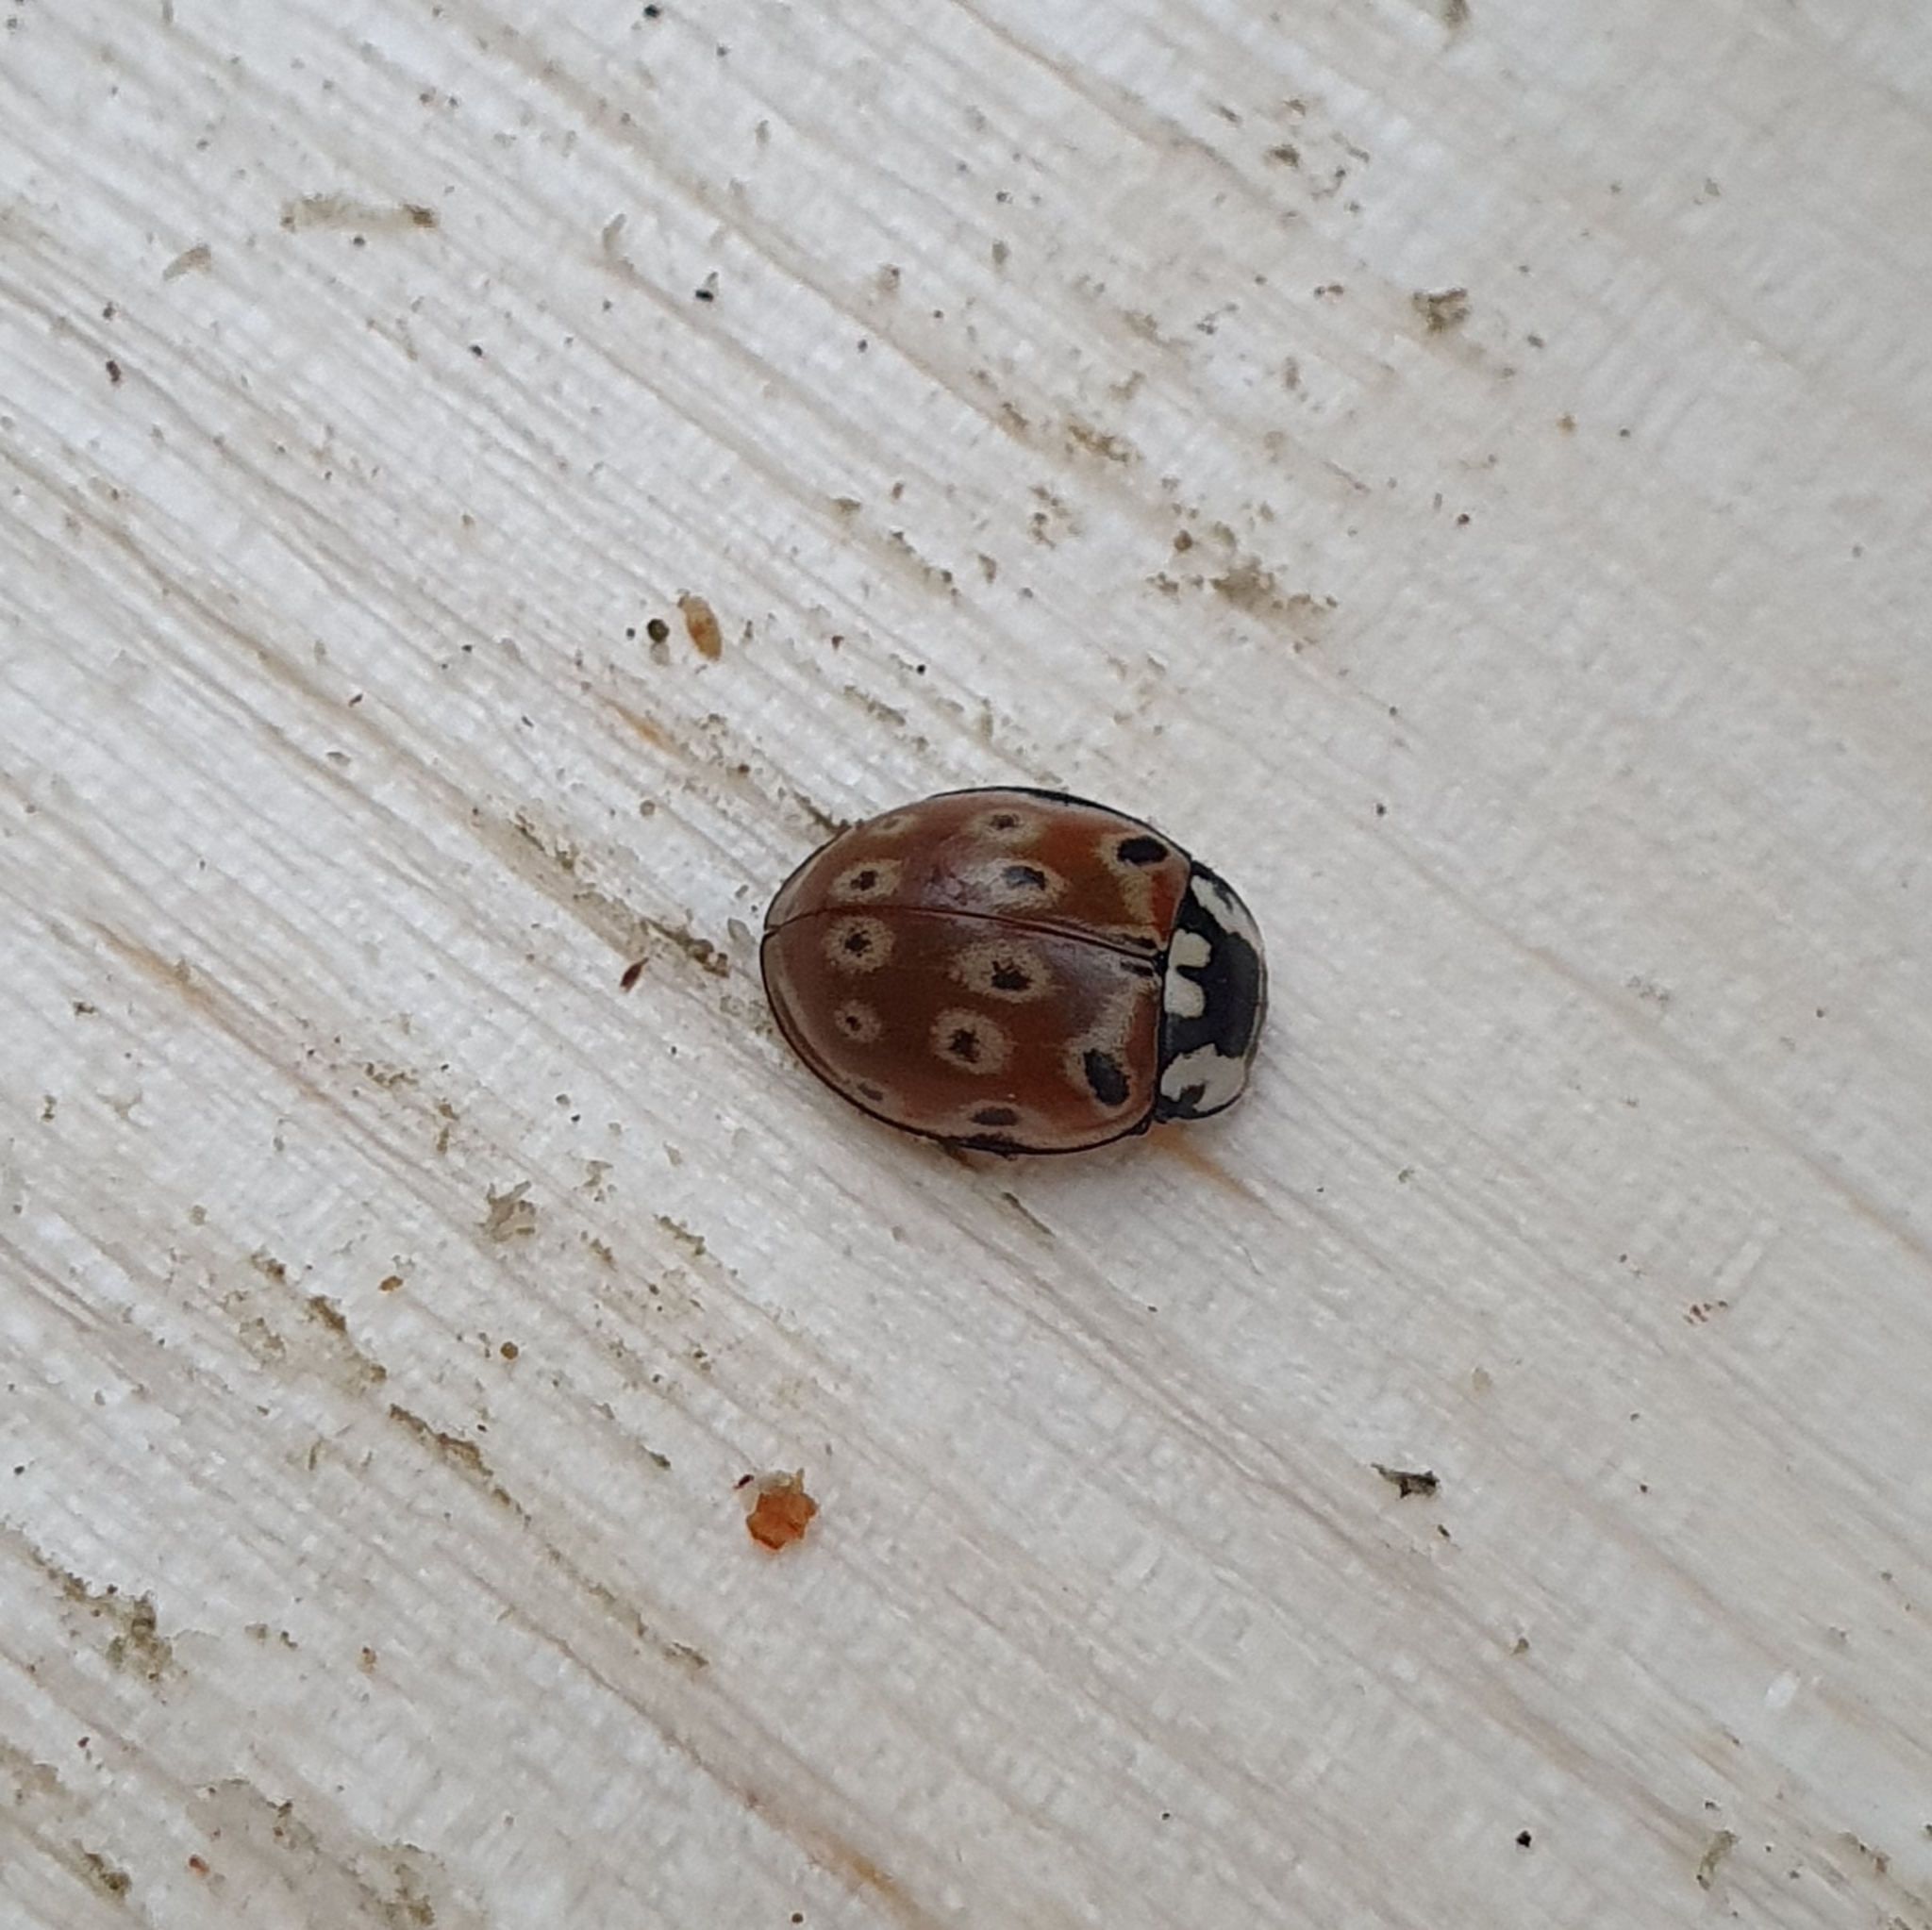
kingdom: Animalia
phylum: Arthropoda
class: Insecta
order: Coleoptera
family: Coccinellidae
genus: Anatis
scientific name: Anatis ocellata
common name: Eyed ladybird
